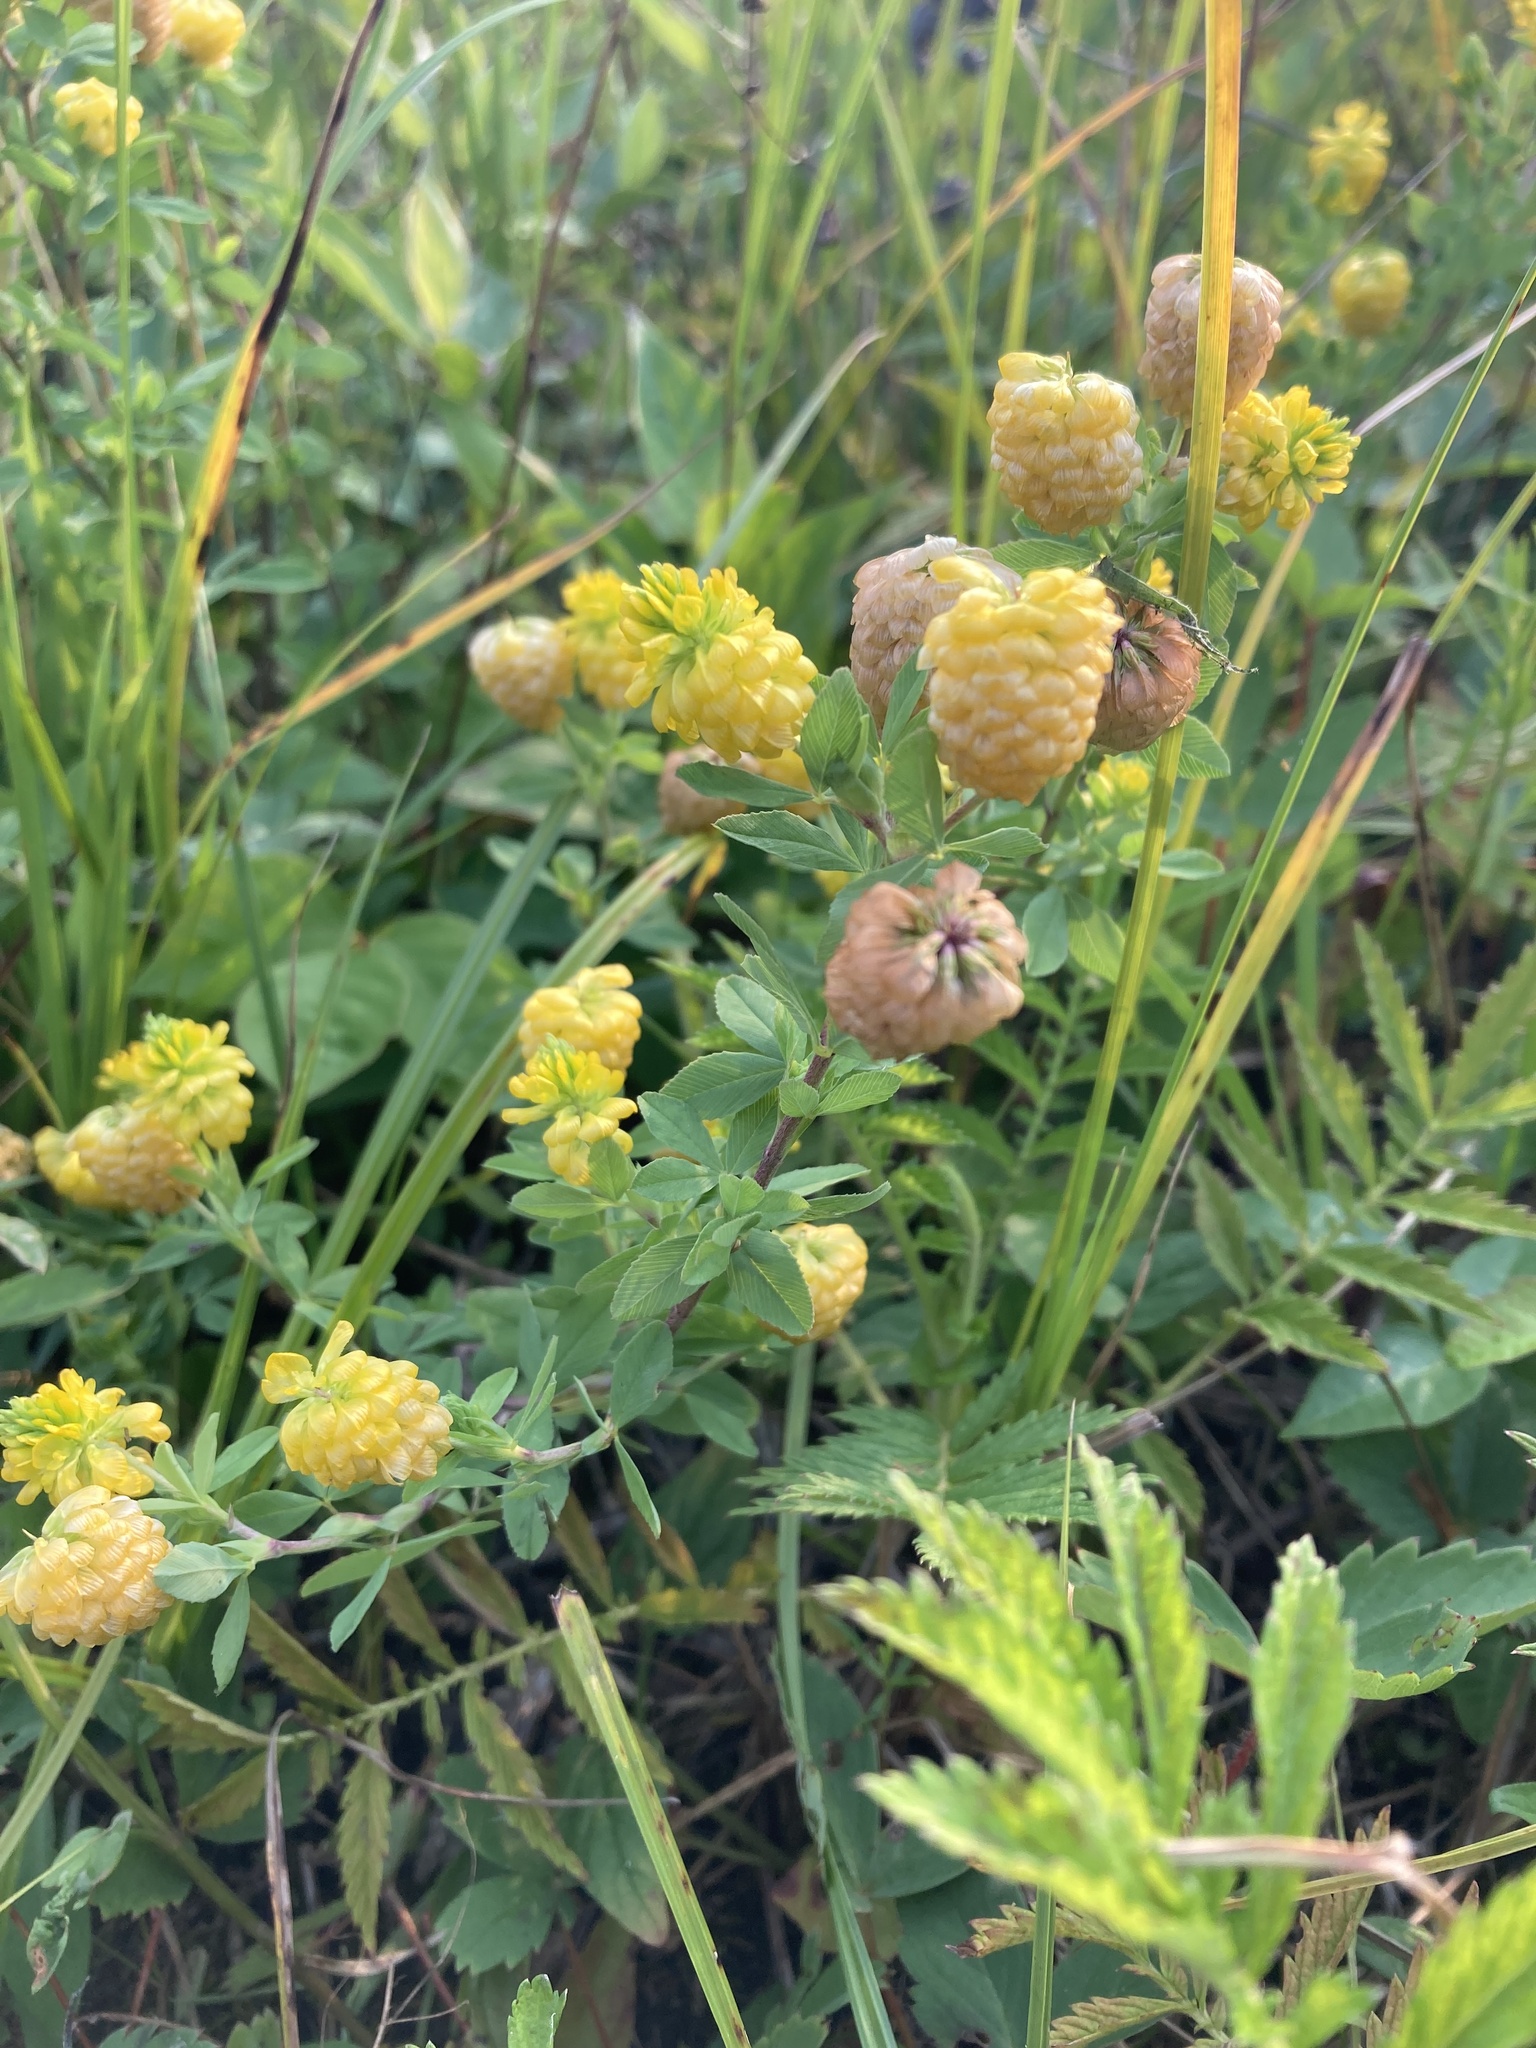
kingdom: Plantae
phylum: Tracheophyta
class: Magnoliopsida
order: Fabales
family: Fabaceae
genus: Trifolium
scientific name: Trifolium aureum
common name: Golden clover
